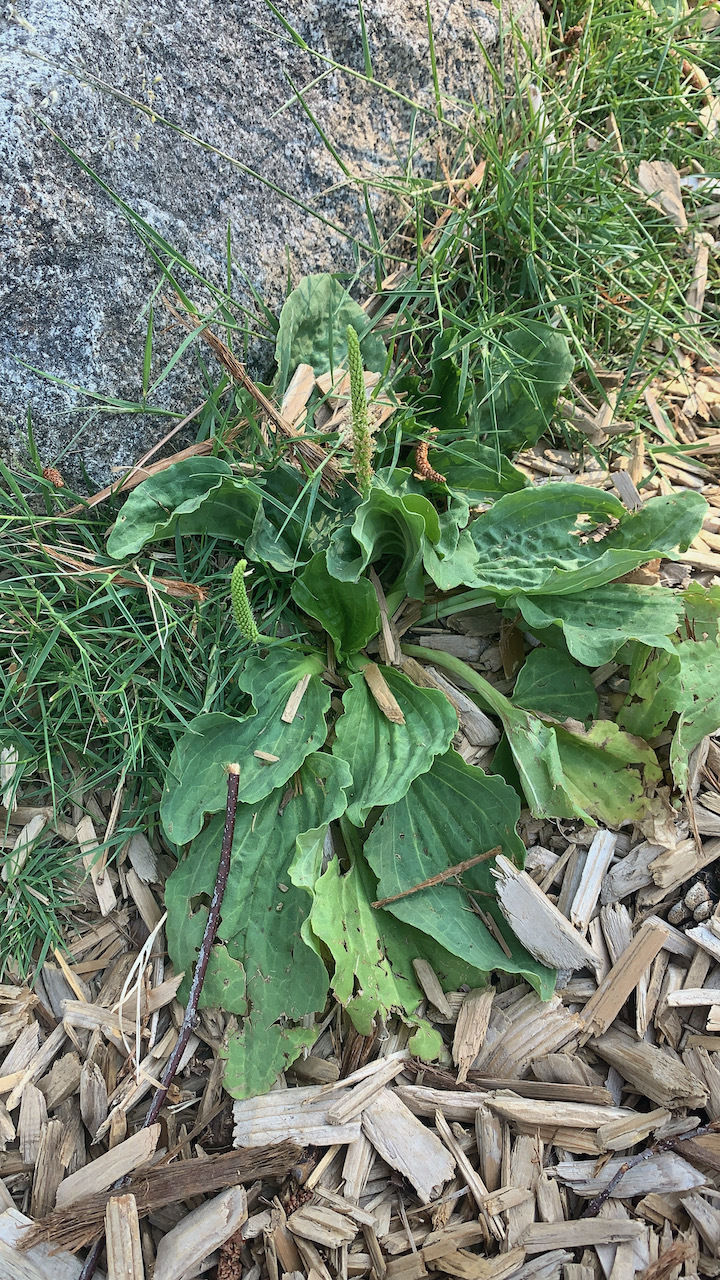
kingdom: Plantae
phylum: Tracheophyta
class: Magnoliopsida
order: Lamiales
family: Plantaginaceae
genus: Plantago
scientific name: Plantago major
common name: Common plantain
